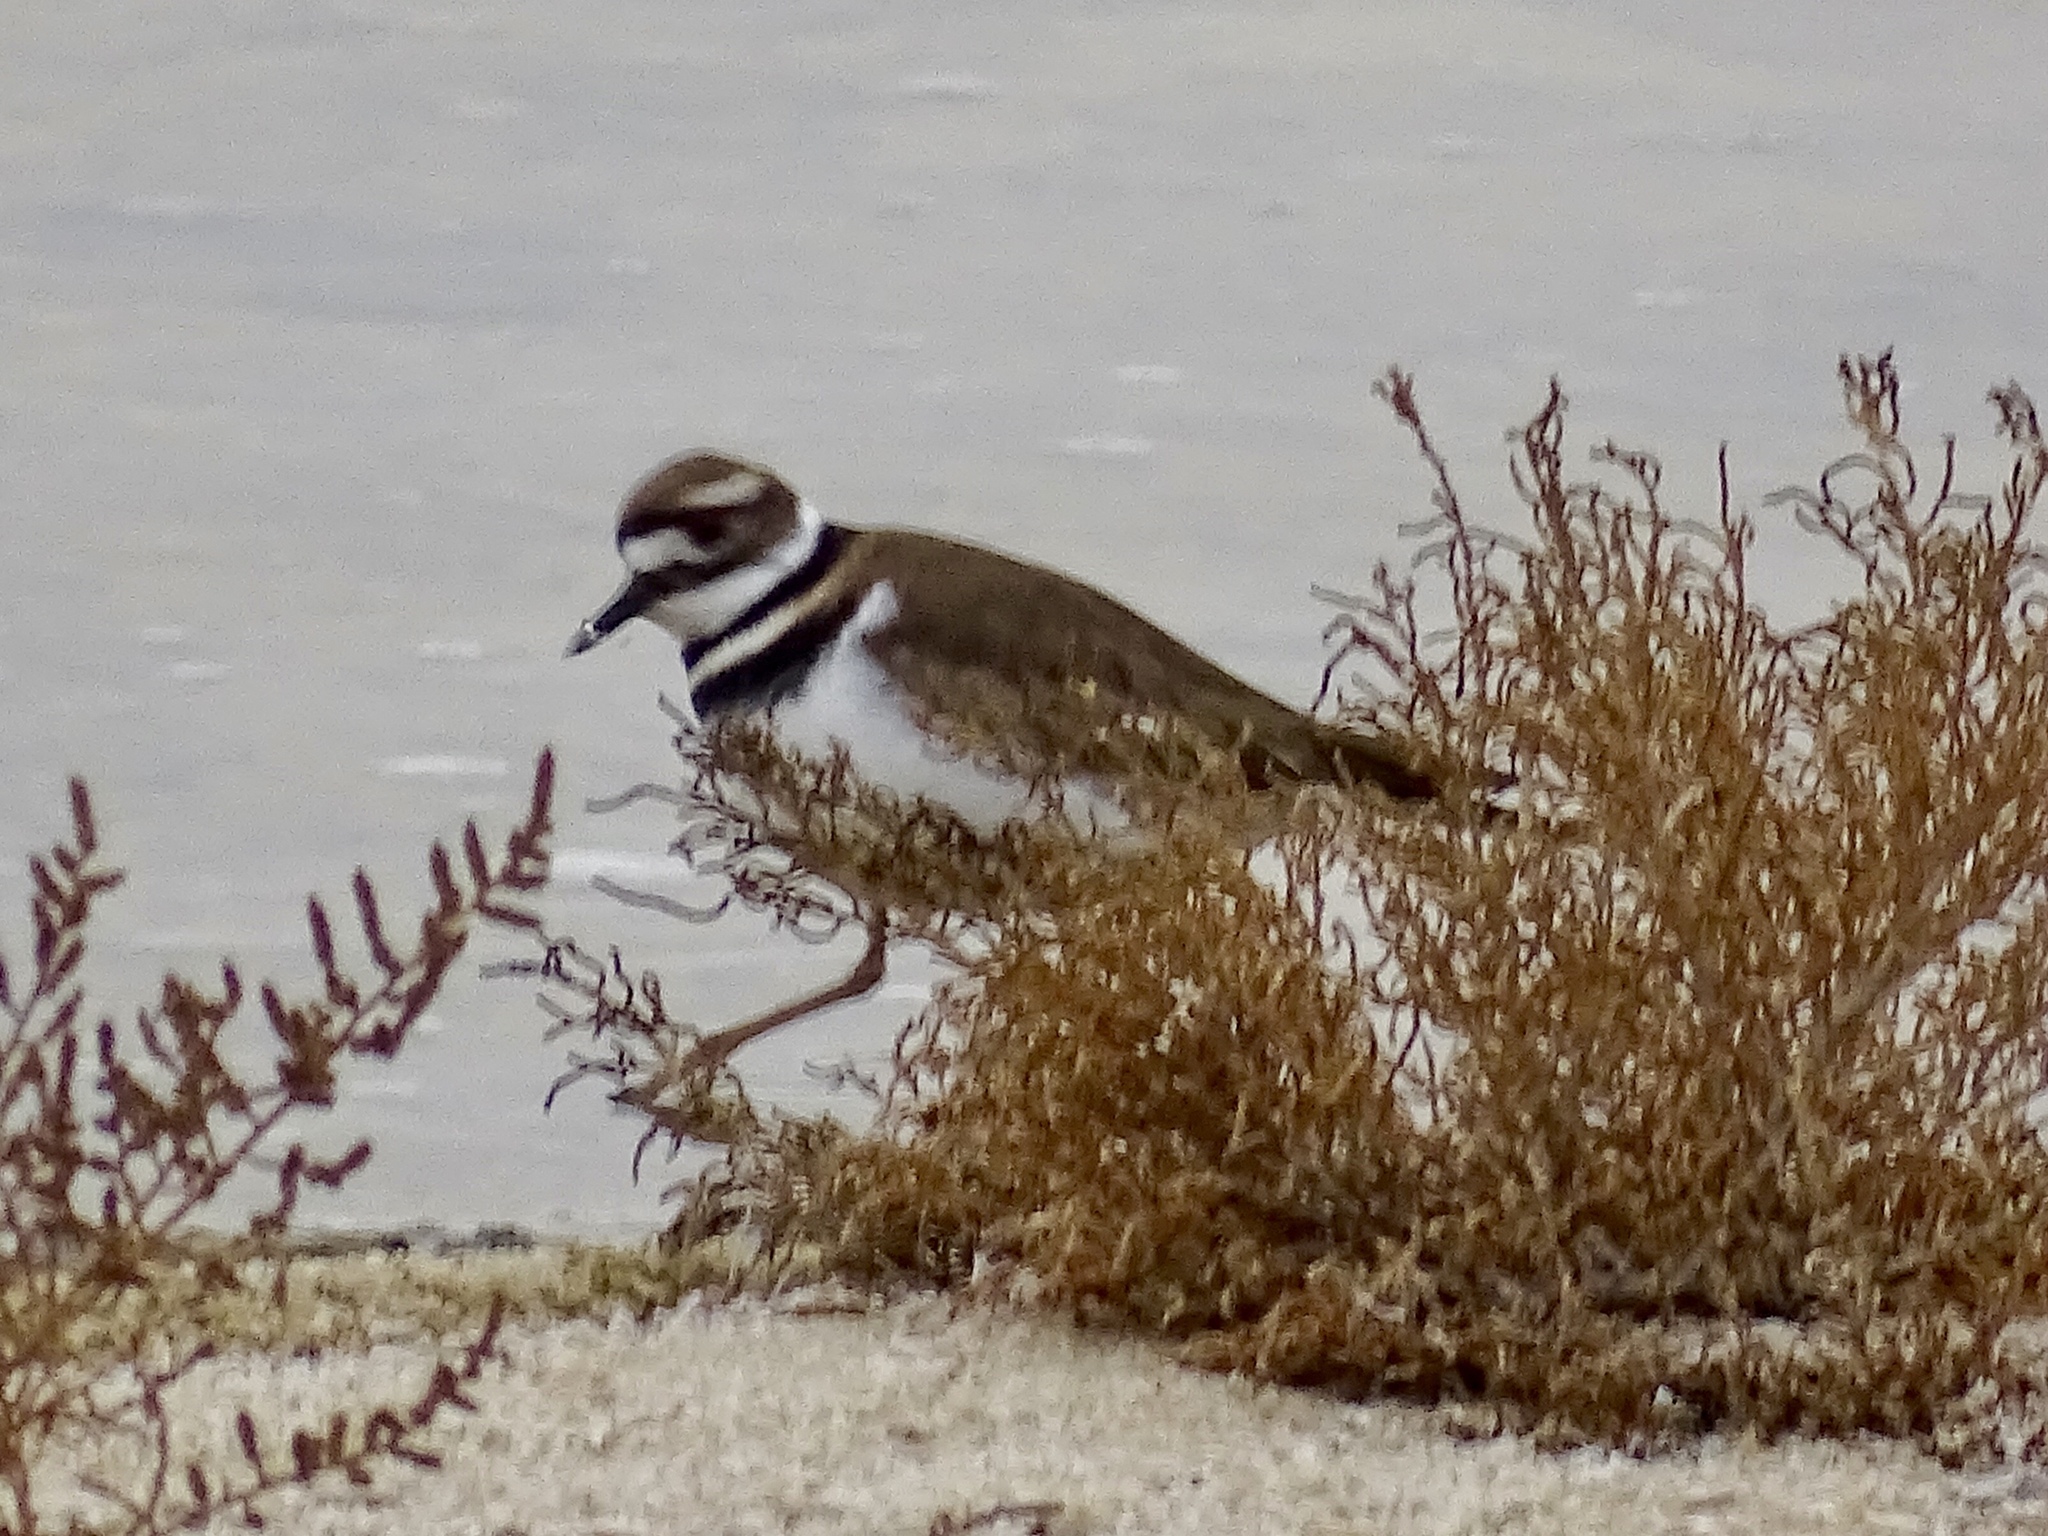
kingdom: Animalia
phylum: Chordata
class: Aves
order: Charadriiformes
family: Charadriidae
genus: Charadrius
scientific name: Charadrius vociferus
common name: Killdeer
